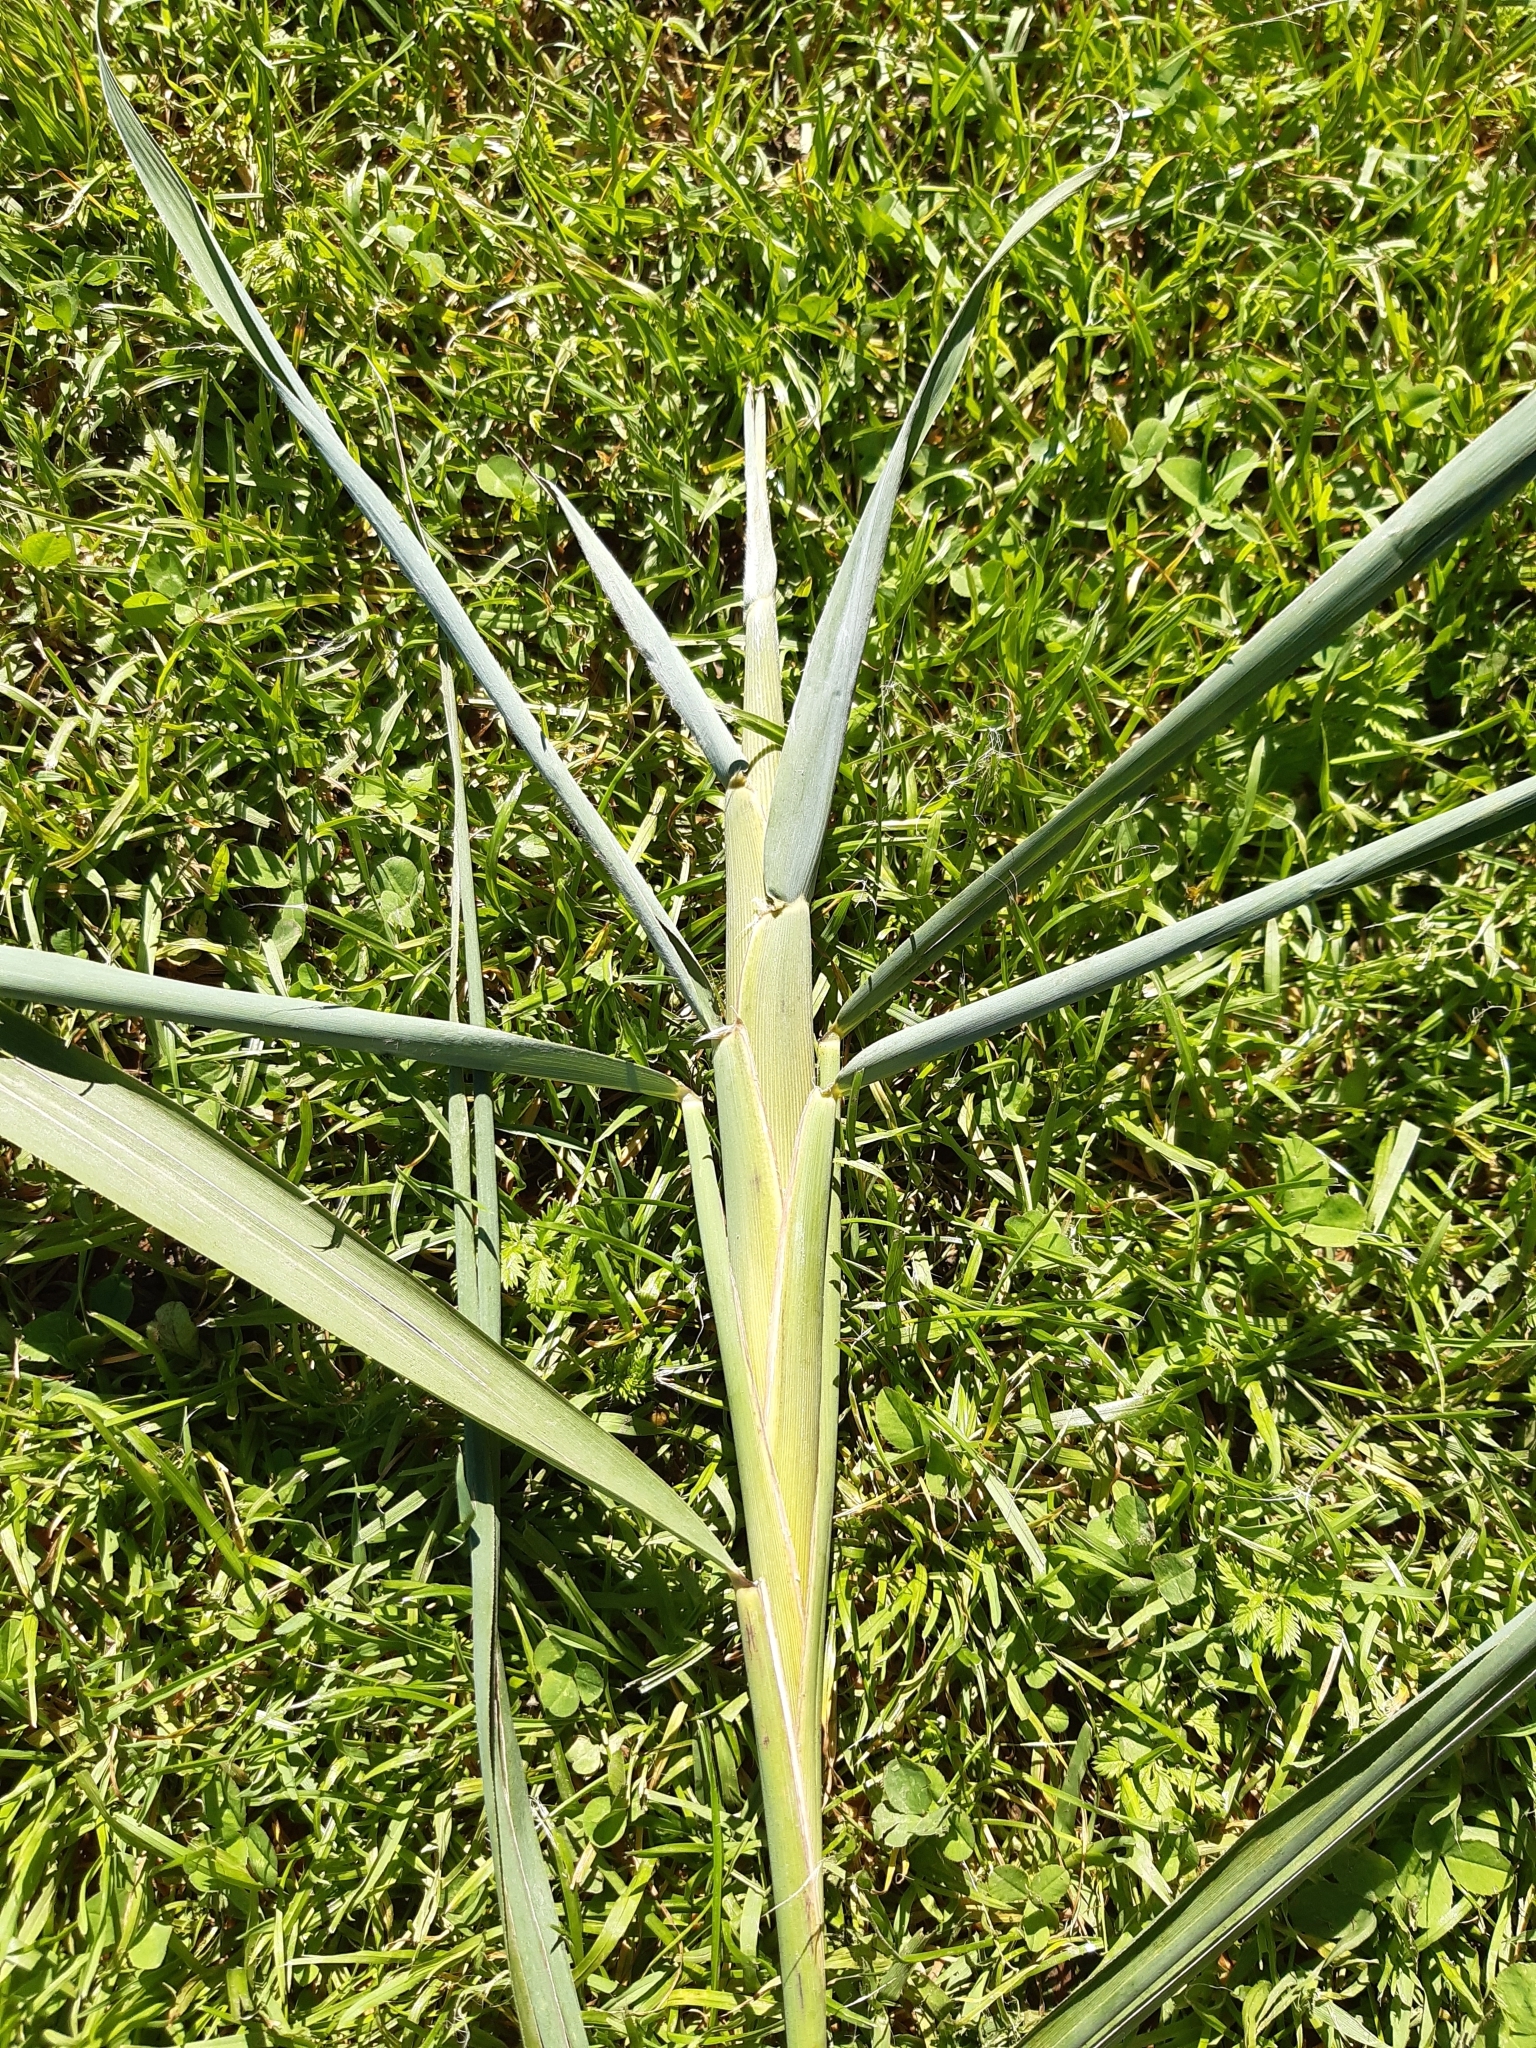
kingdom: Animalia
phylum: Arthropoda
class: Insecta
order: Diptera
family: Chloropidae
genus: Lipara
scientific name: Lipara lucens
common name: Frit fly
